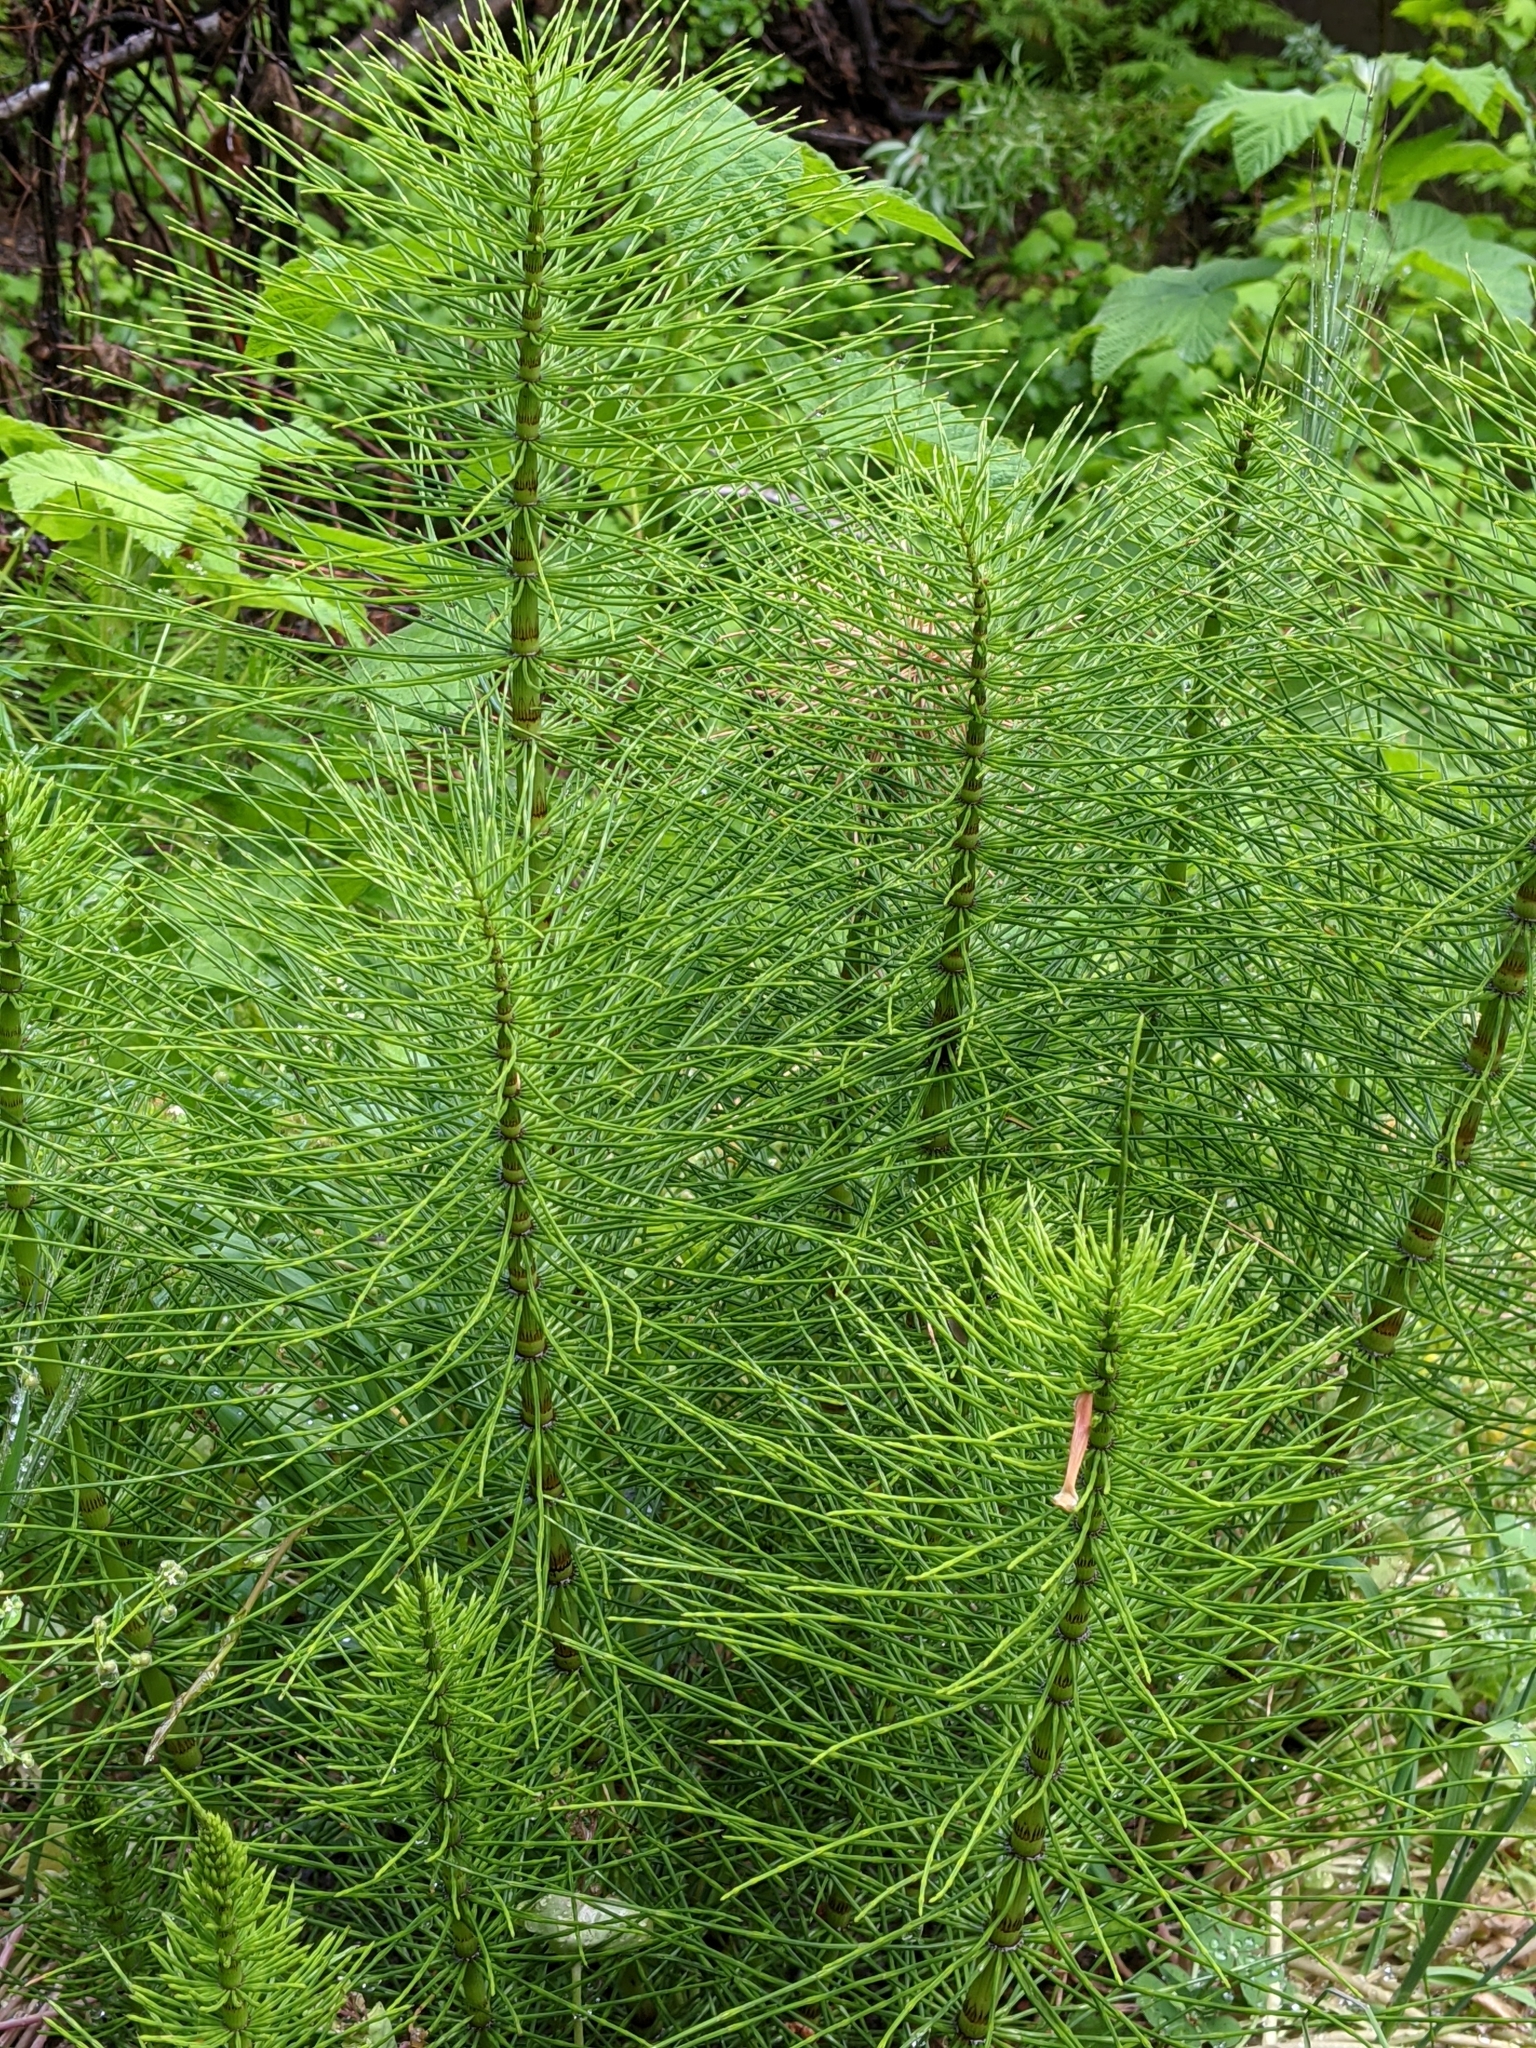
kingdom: Plantae
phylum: Tracheophyta
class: Polypodiopsida
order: Equisetales
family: Equisetaceae
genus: Equisetum
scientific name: Equisetum telmateia
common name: Great horsetail
